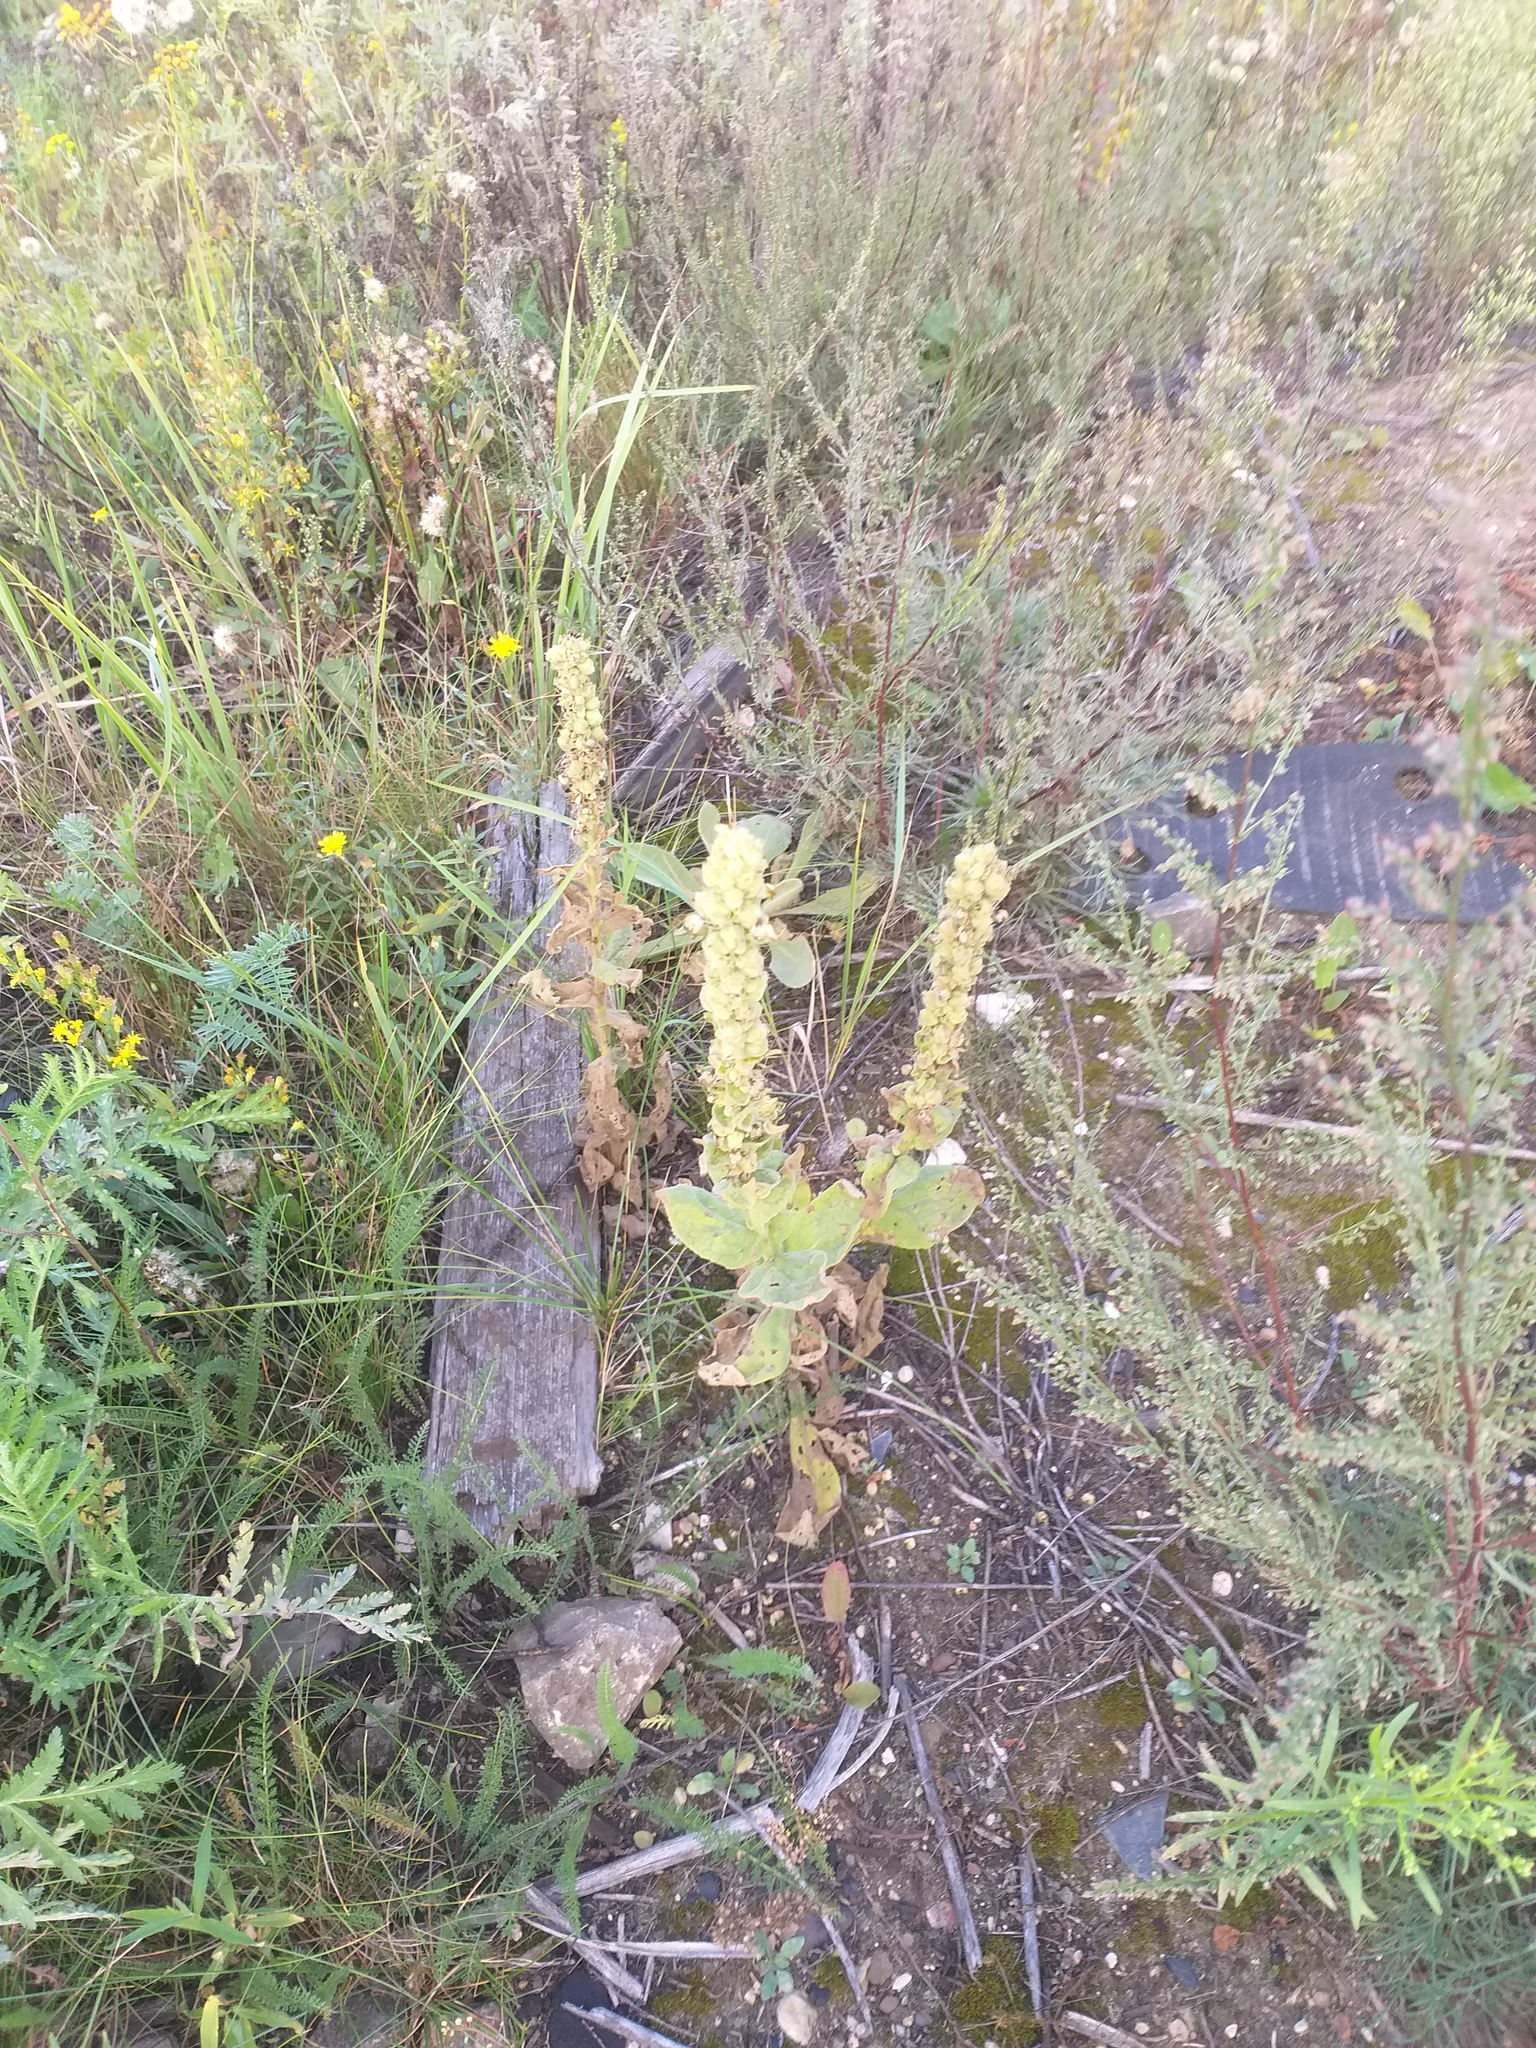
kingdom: Plantae
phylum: Tracheophyta
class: Magnoliopsida
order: Lamiales
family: Scrophulariaceae
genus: Verbascum
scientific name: Verbascum thapsus
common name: Common mullein
